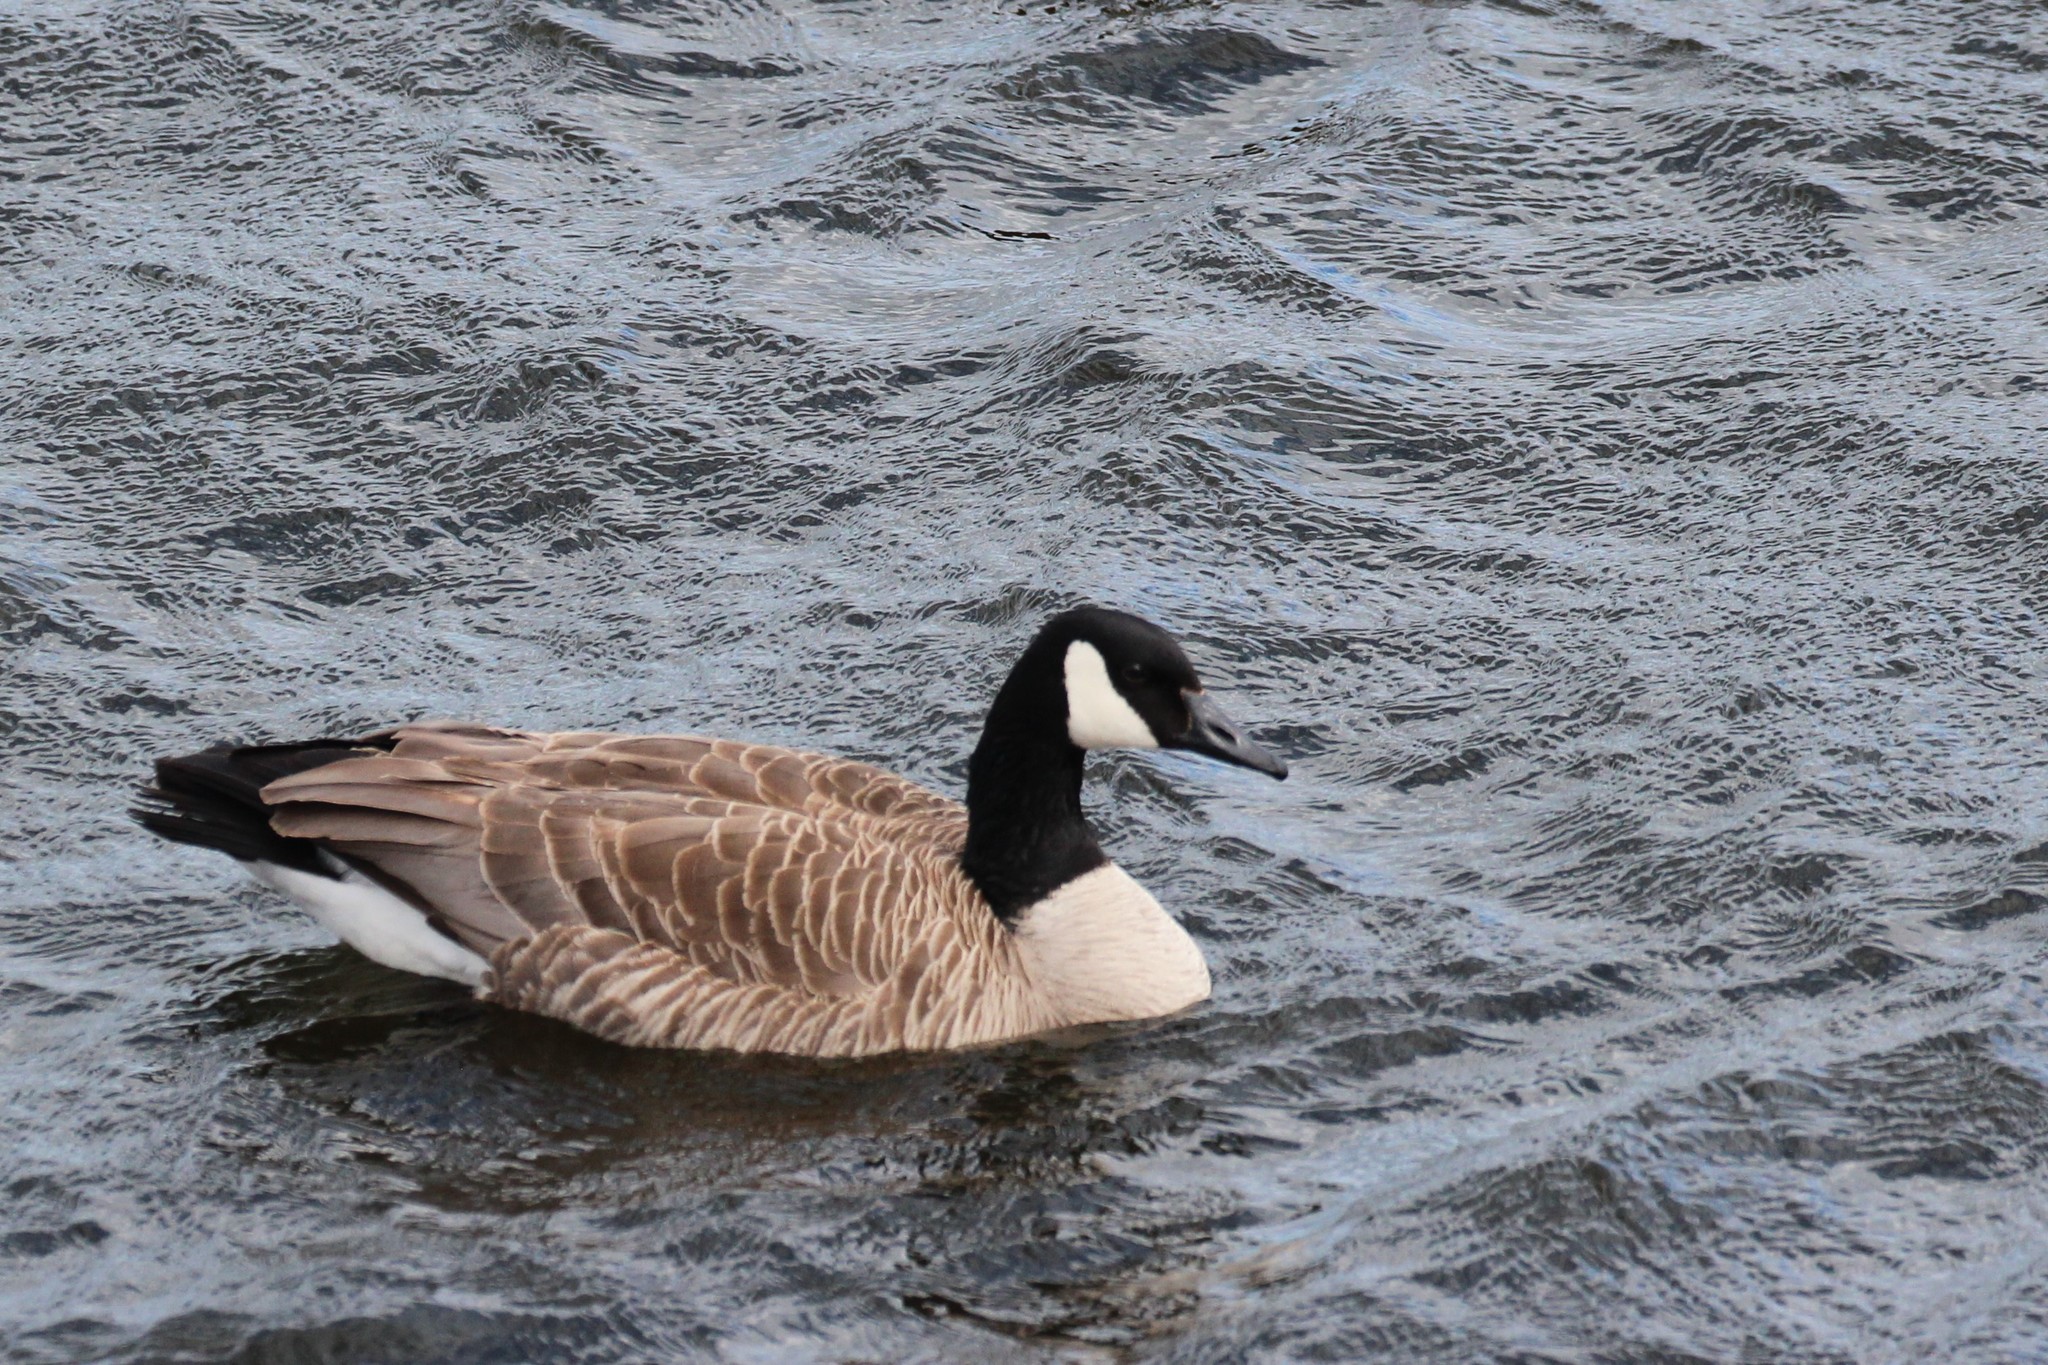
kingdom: Animalia
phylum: Chordata
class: Aves
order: Anseriformes
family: Anatidae
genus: Branta
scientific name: Branta canadensis
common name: Canada goose
